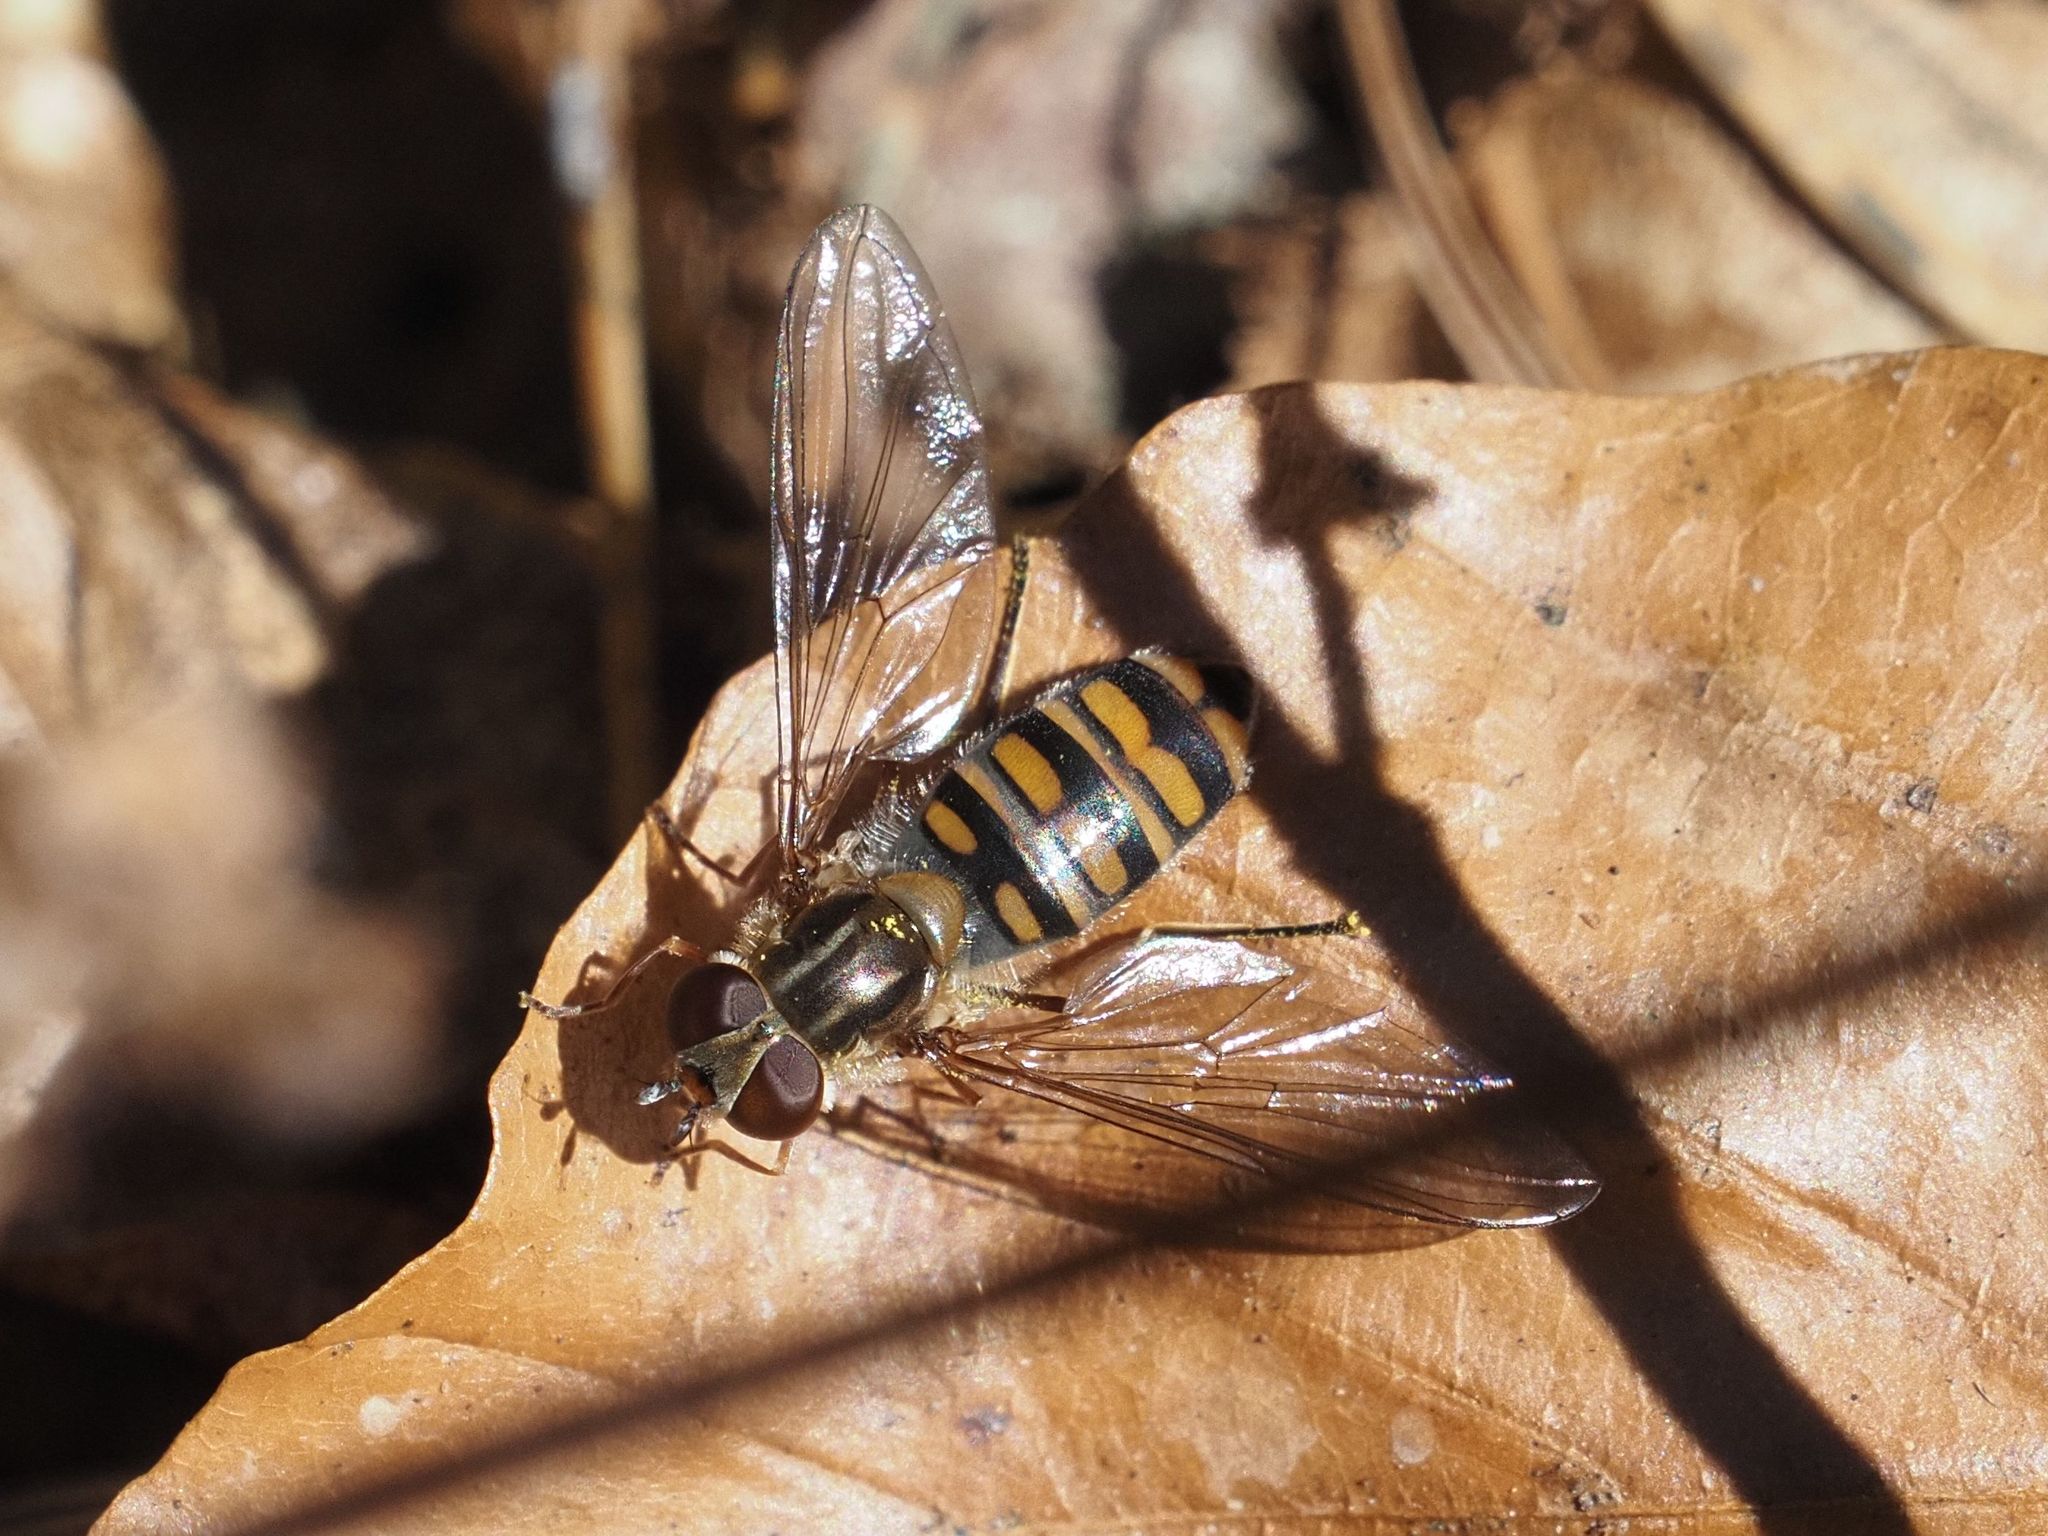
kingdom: Animalia
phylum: Arthropoda
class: Insecta
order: Diptera
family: Syrphidae
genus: Episyrphus
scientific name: Episyrphus balteatus
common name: Marmalade hoverfly
